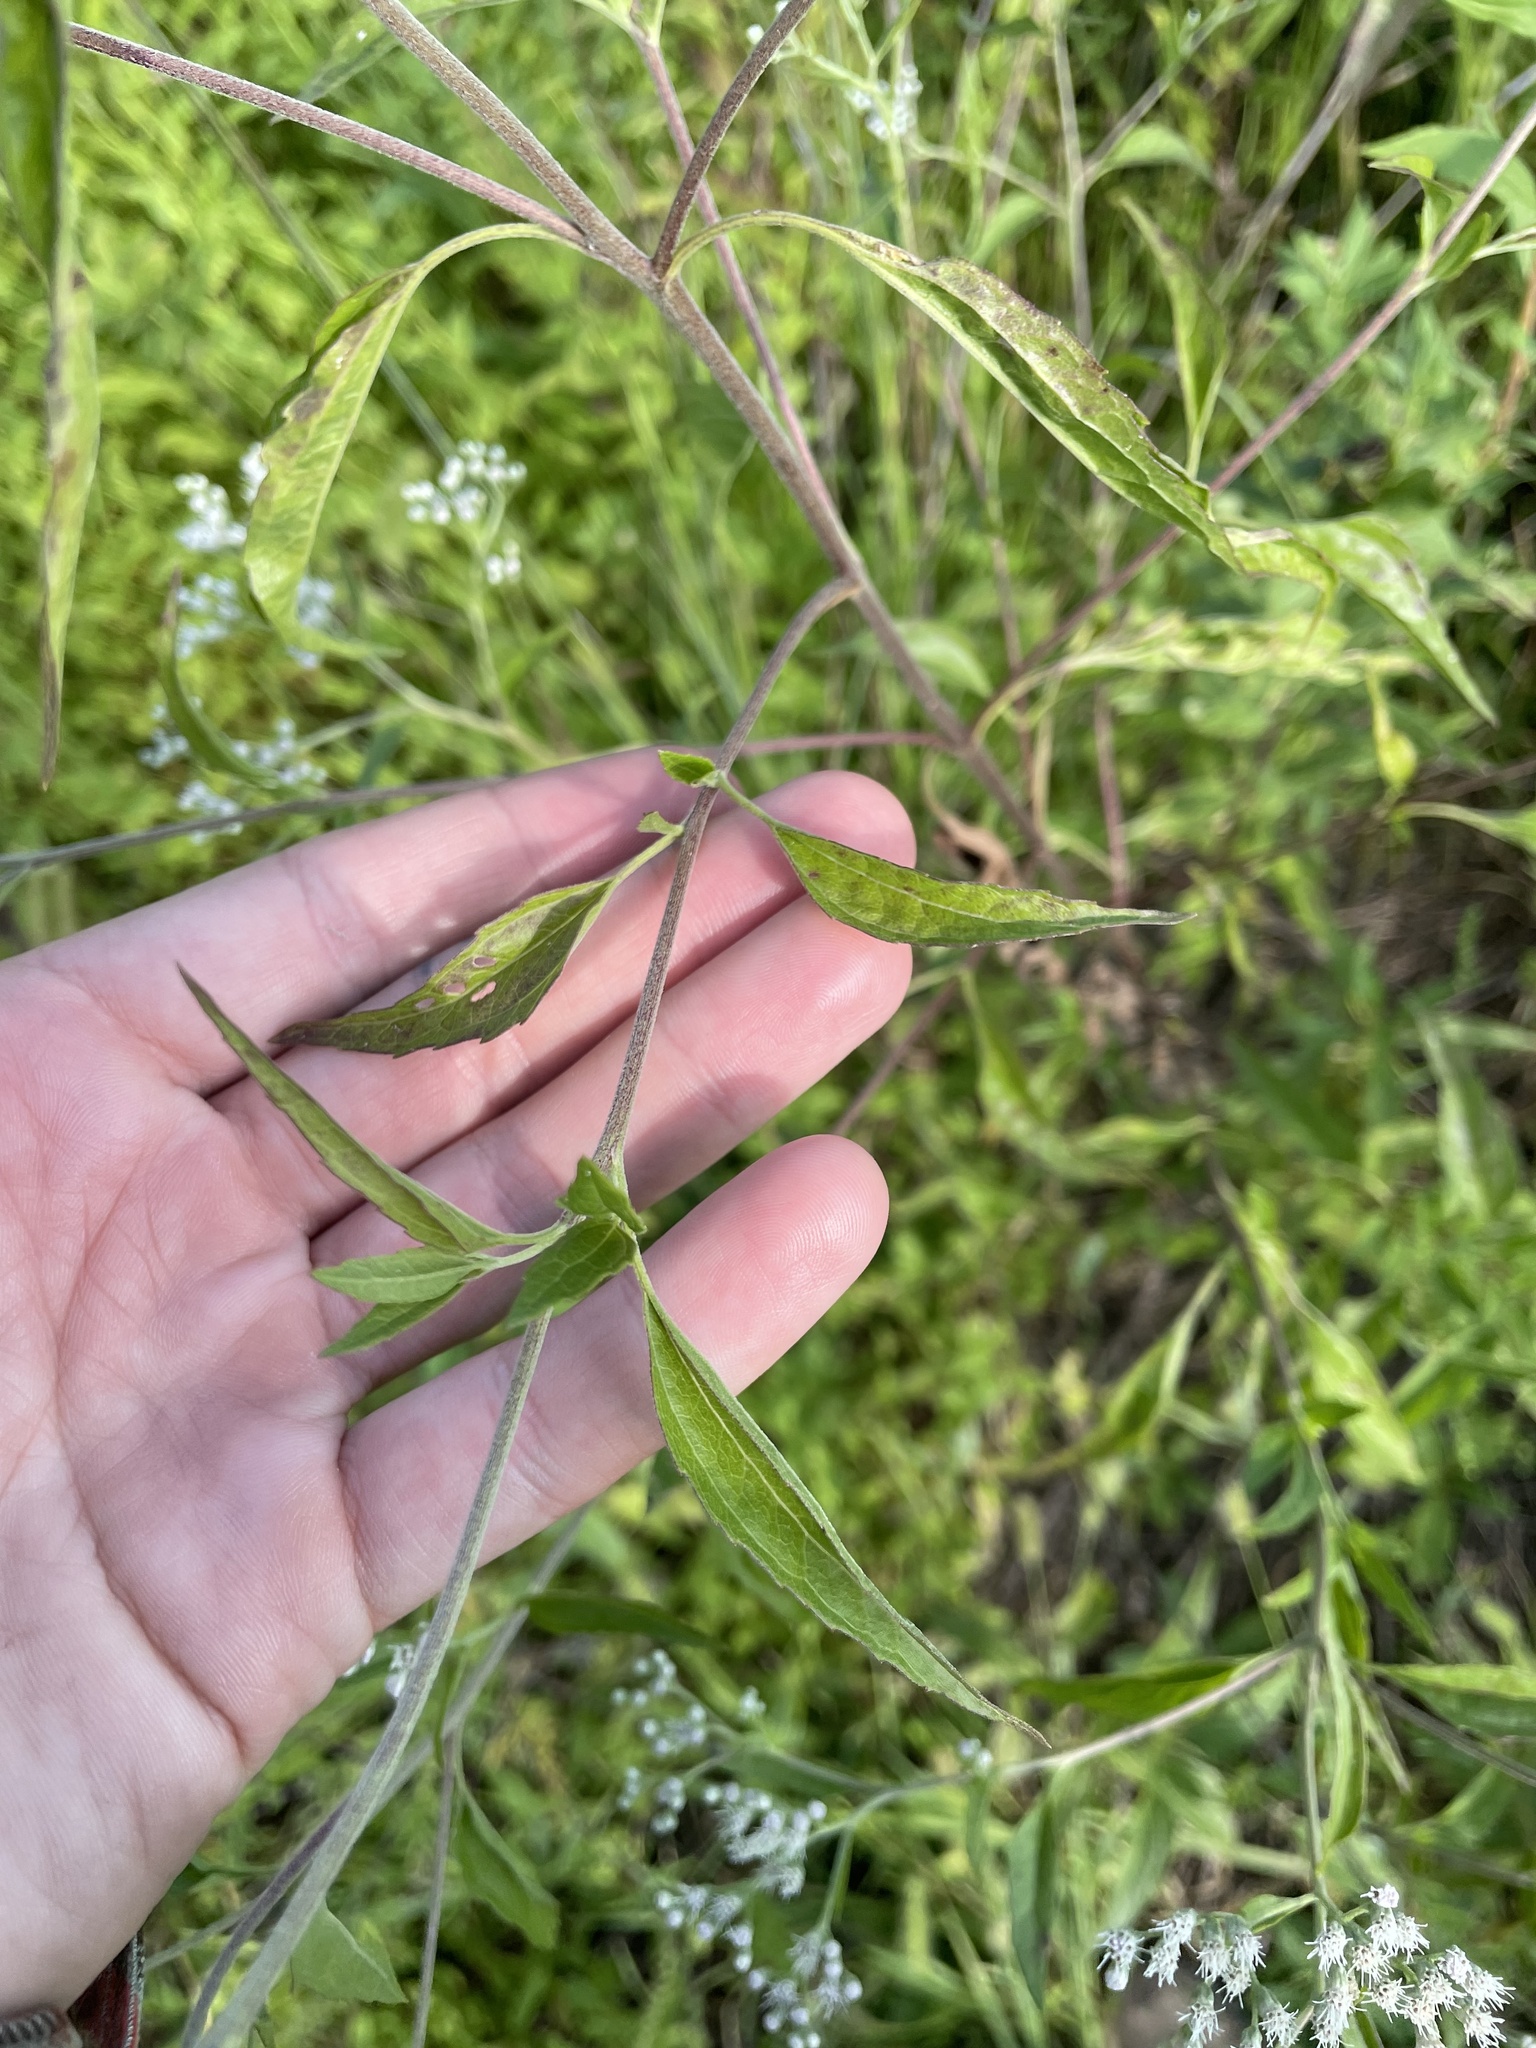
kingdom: Plantae
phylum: Tracheophyta
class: Magnoliopsida
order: Asterales
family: Asteraceae
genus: Eupatorium
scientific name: Eupatorium serotinum
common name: Late boneset
